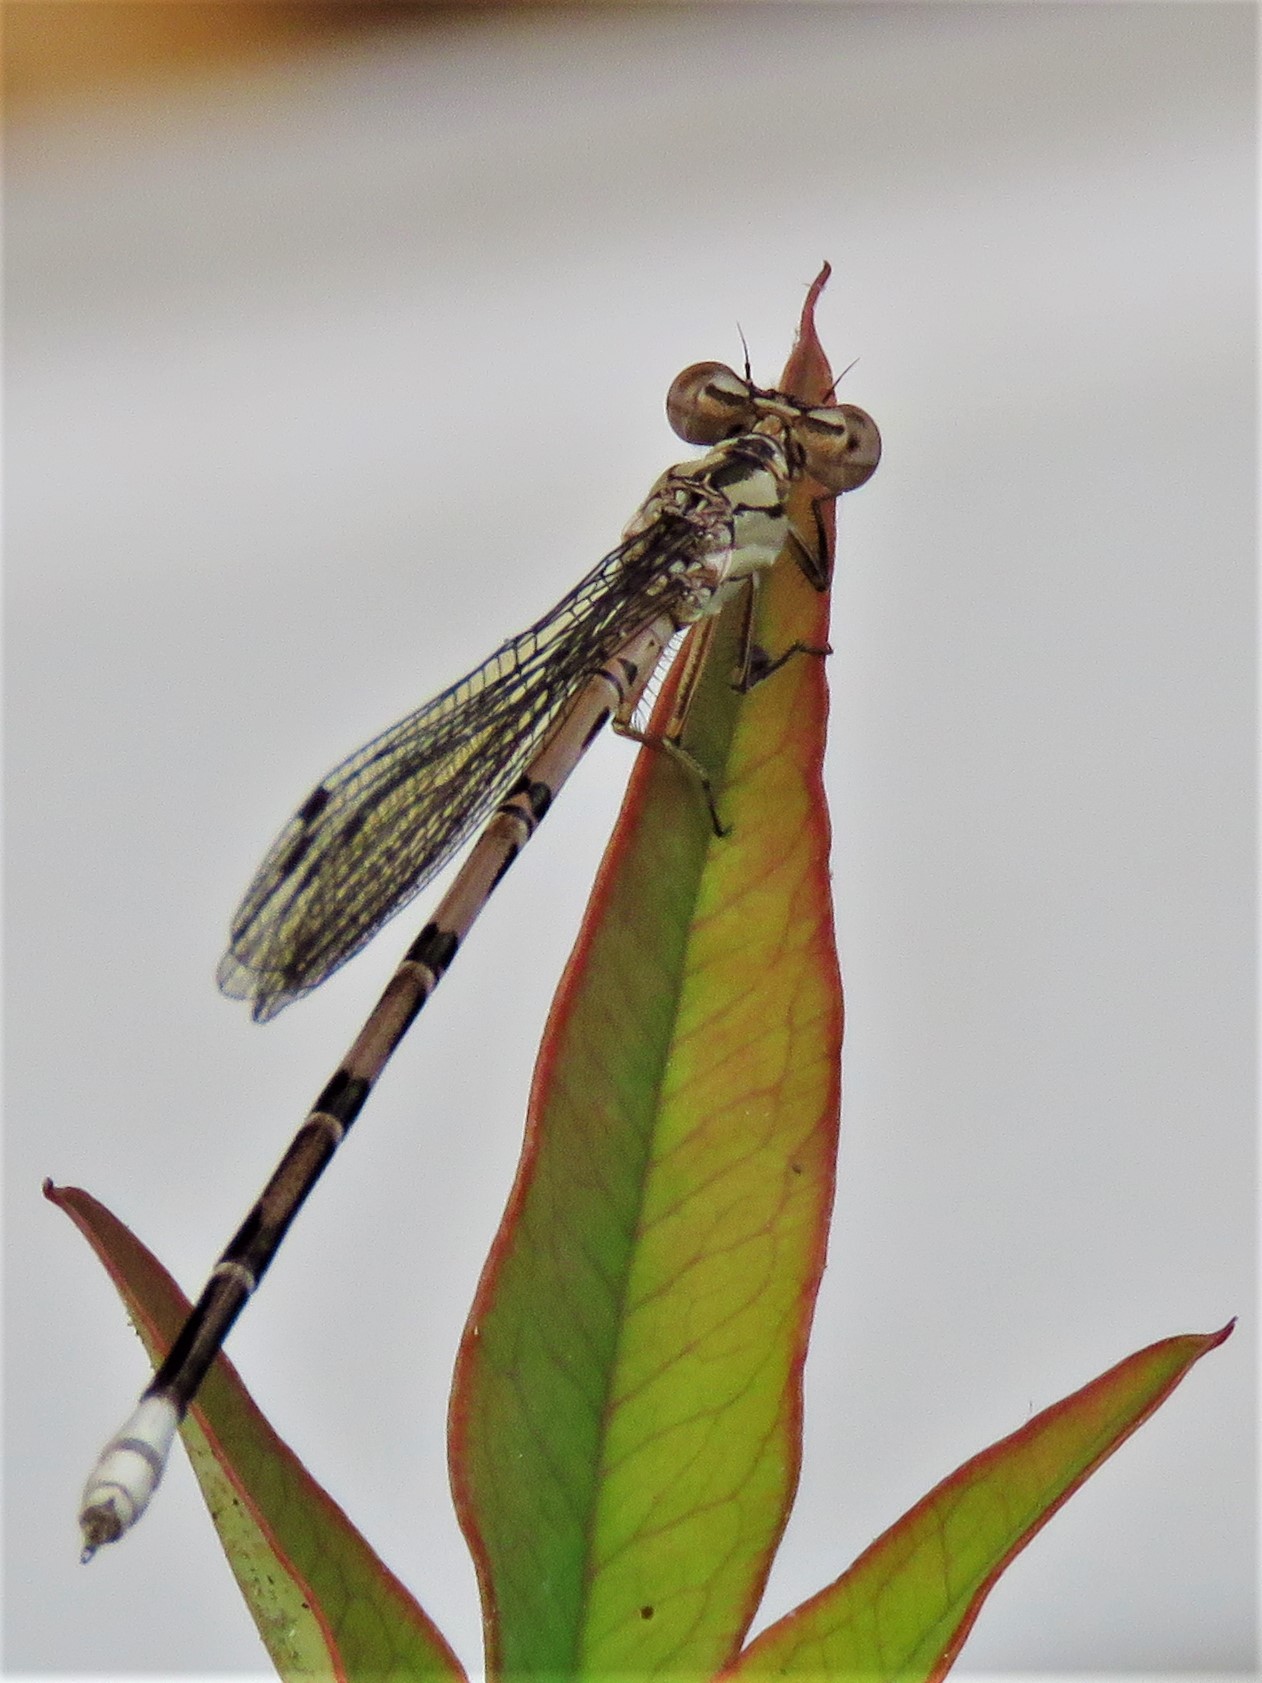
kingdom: Animalia
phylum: Arthropoda
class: Insecta
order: Odonata
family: Coenagrionidae
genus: Argia
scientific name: Argia funebris
